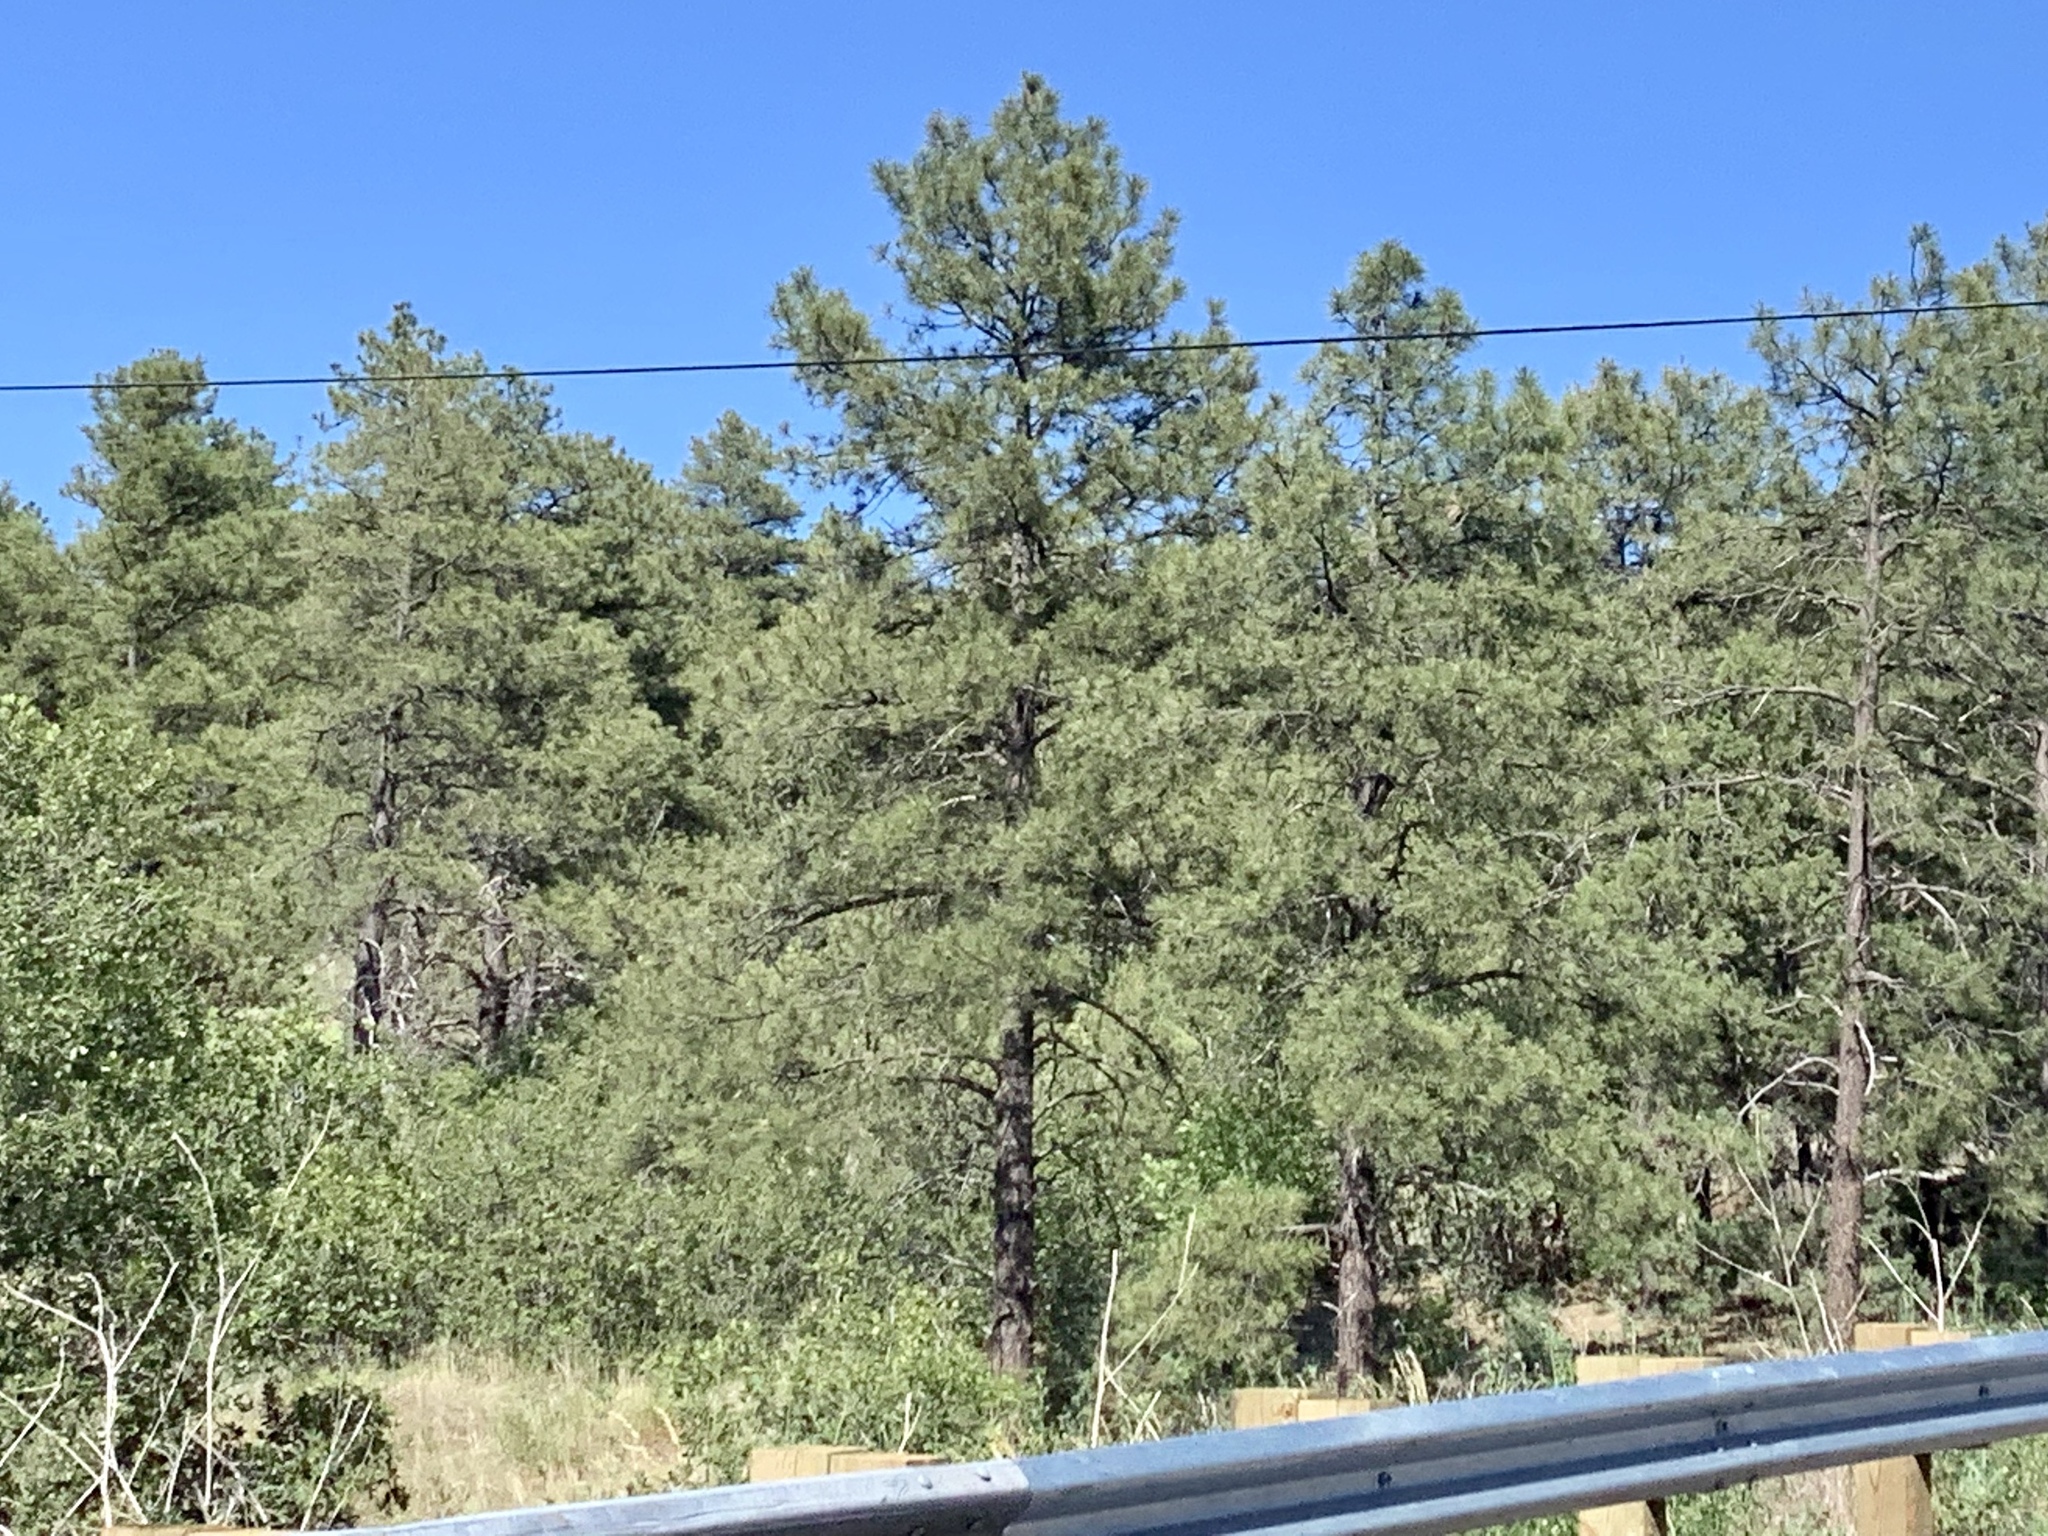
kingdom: Plantae
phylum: Tracheophyta
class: Pinopsida
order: Pinales
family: Pinaceae
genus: Pinus
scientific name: Pinus ponderosa
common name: Western yellow-pine
